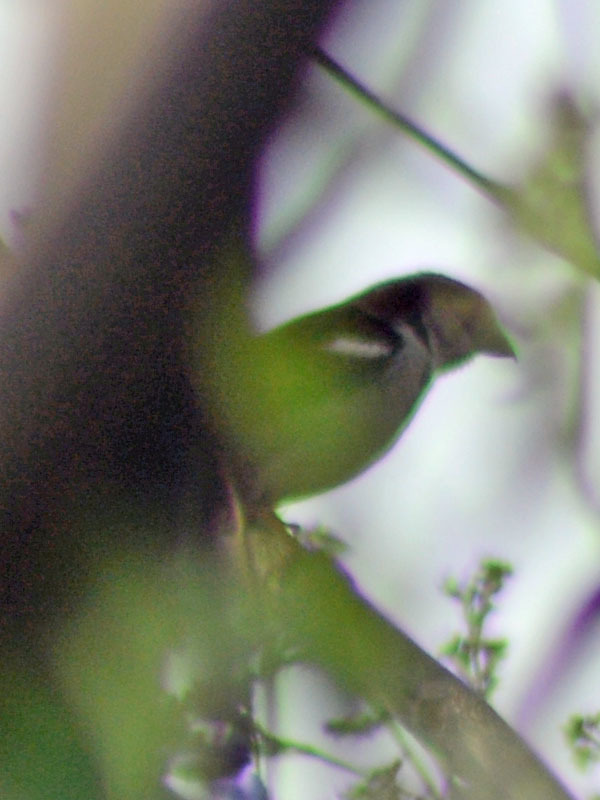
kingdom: Animalia
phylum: Chordata
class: Aves
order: Passeriformes
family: Passeridae
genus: Passer
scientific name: Passer domesticus
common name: House sparrow
